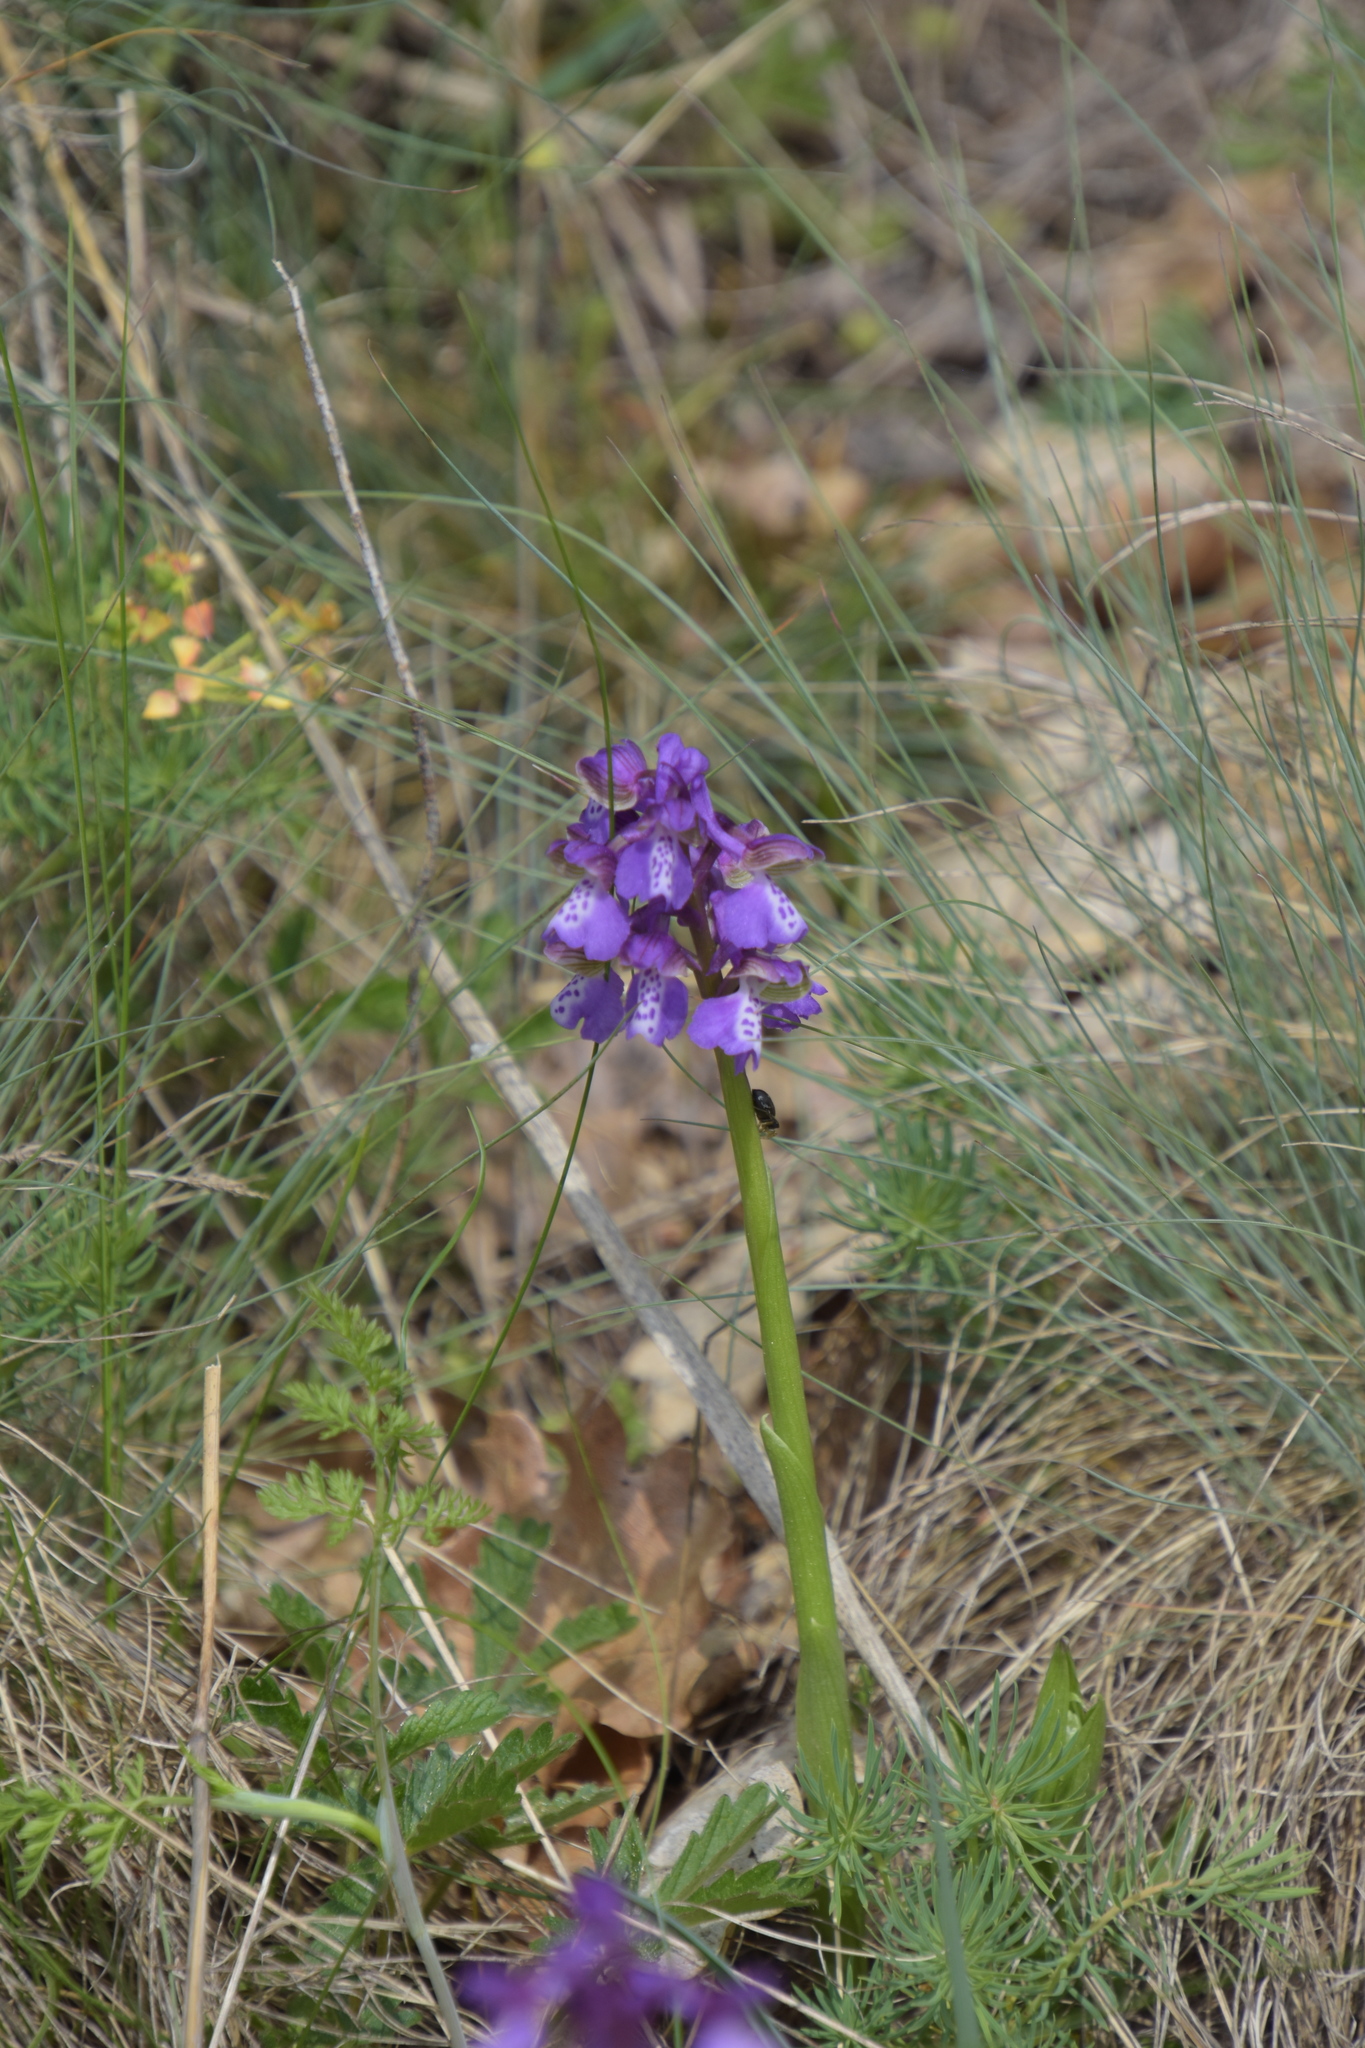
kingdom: Plantae
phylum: Tracheophyta
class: Liliopsida
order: Asparagales
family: Orchidaceae
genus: Anacamptis
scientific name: Anacamptis morio
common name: Green-winged orchid
